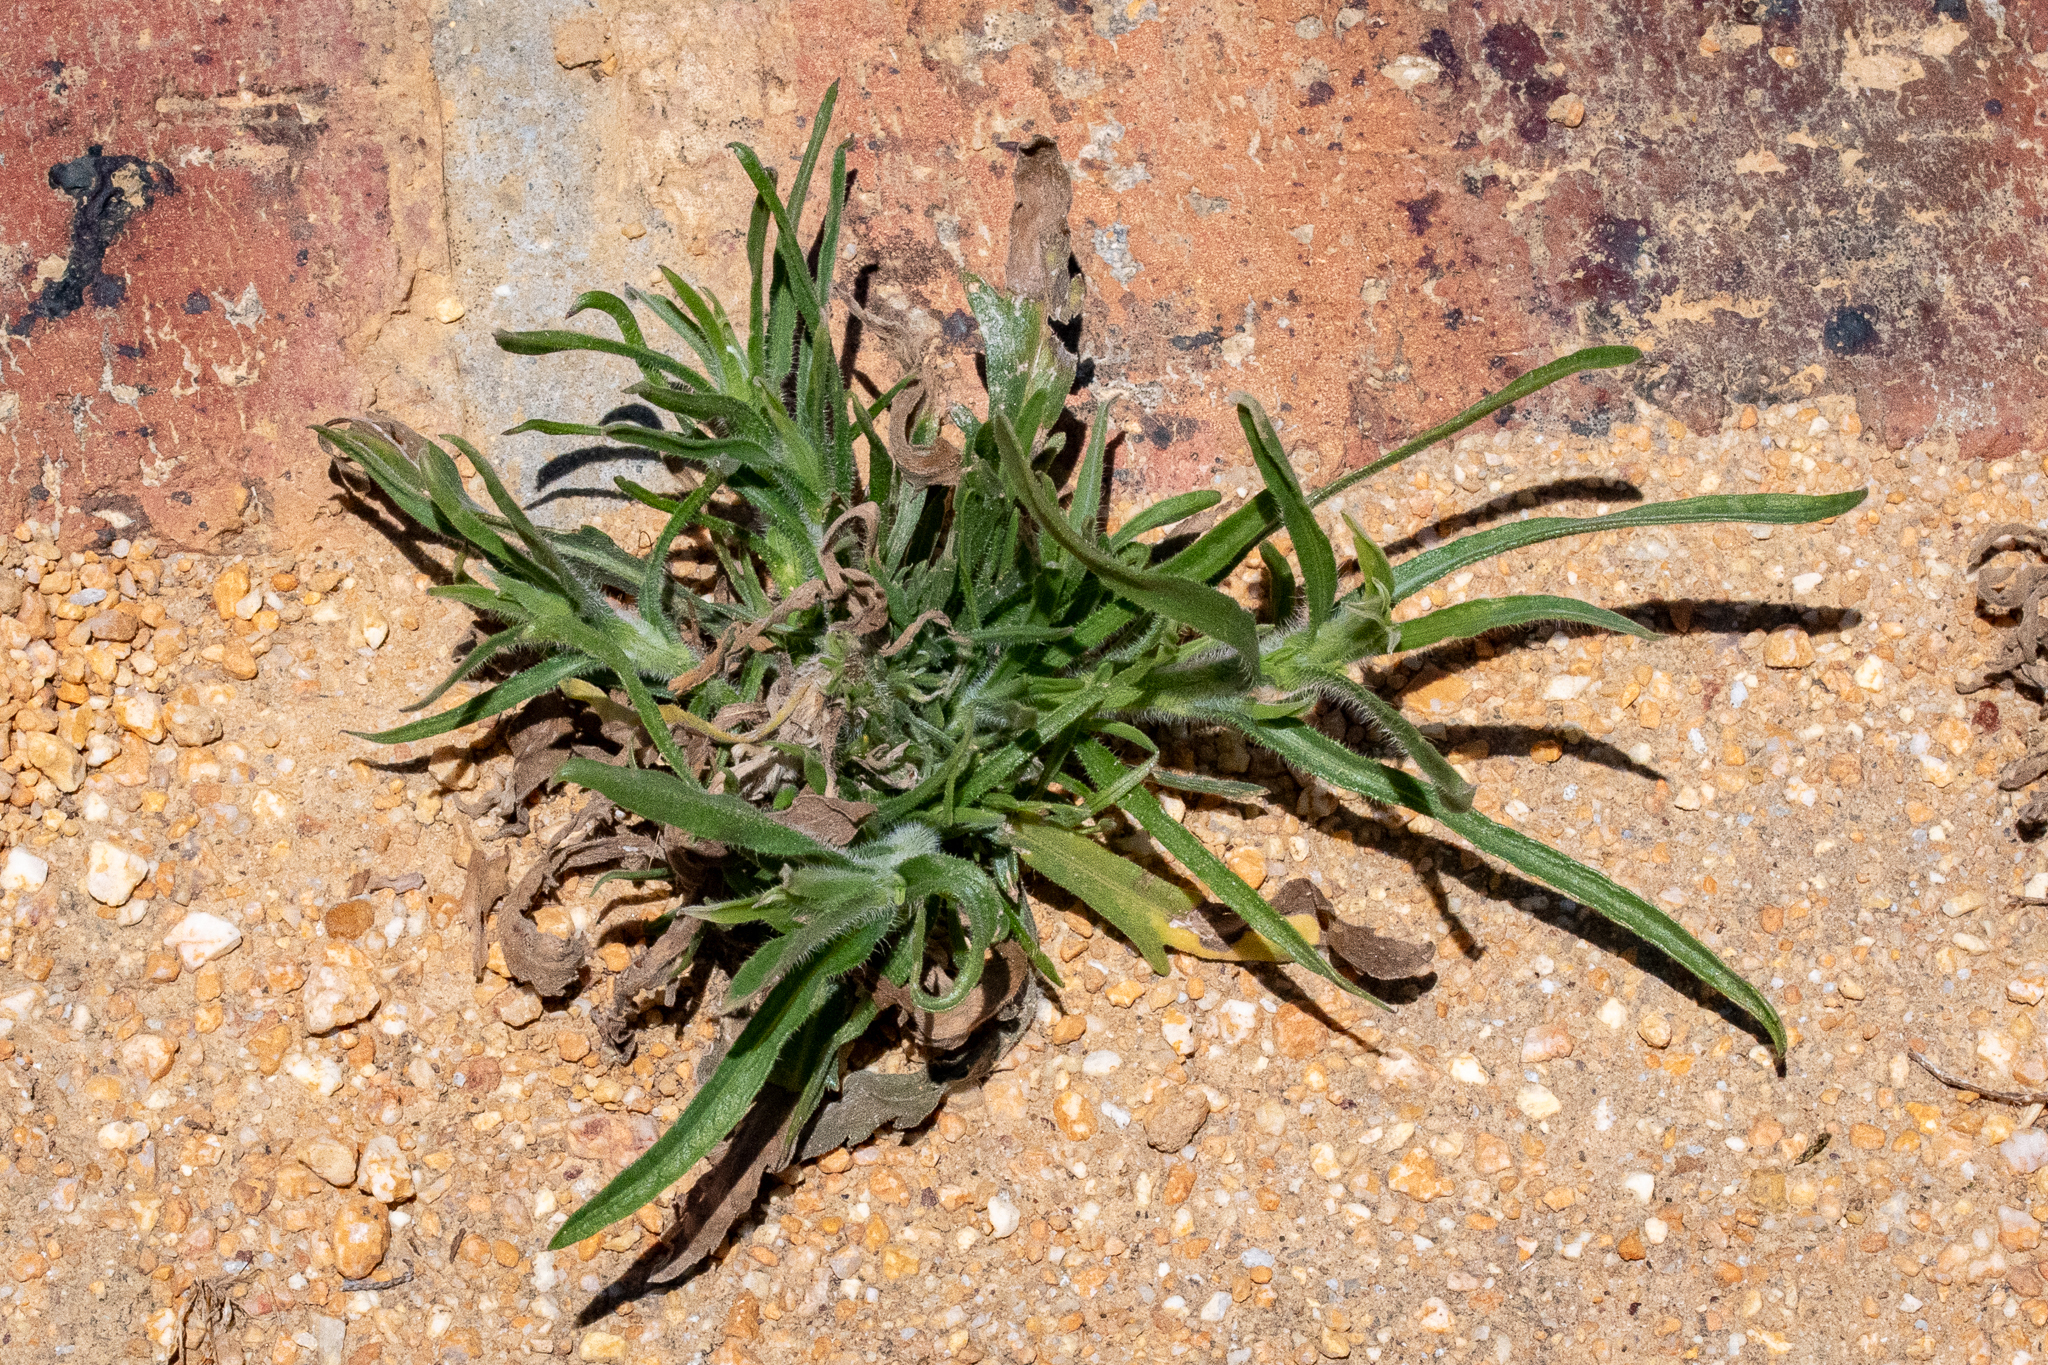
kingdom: Plantae
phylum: Tracheophyta
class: Magnoliopsida
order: Lamiales
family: Plantaginaceae
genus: Plantago
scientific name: Plantago coronopus
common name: Buck's-horn plantain
